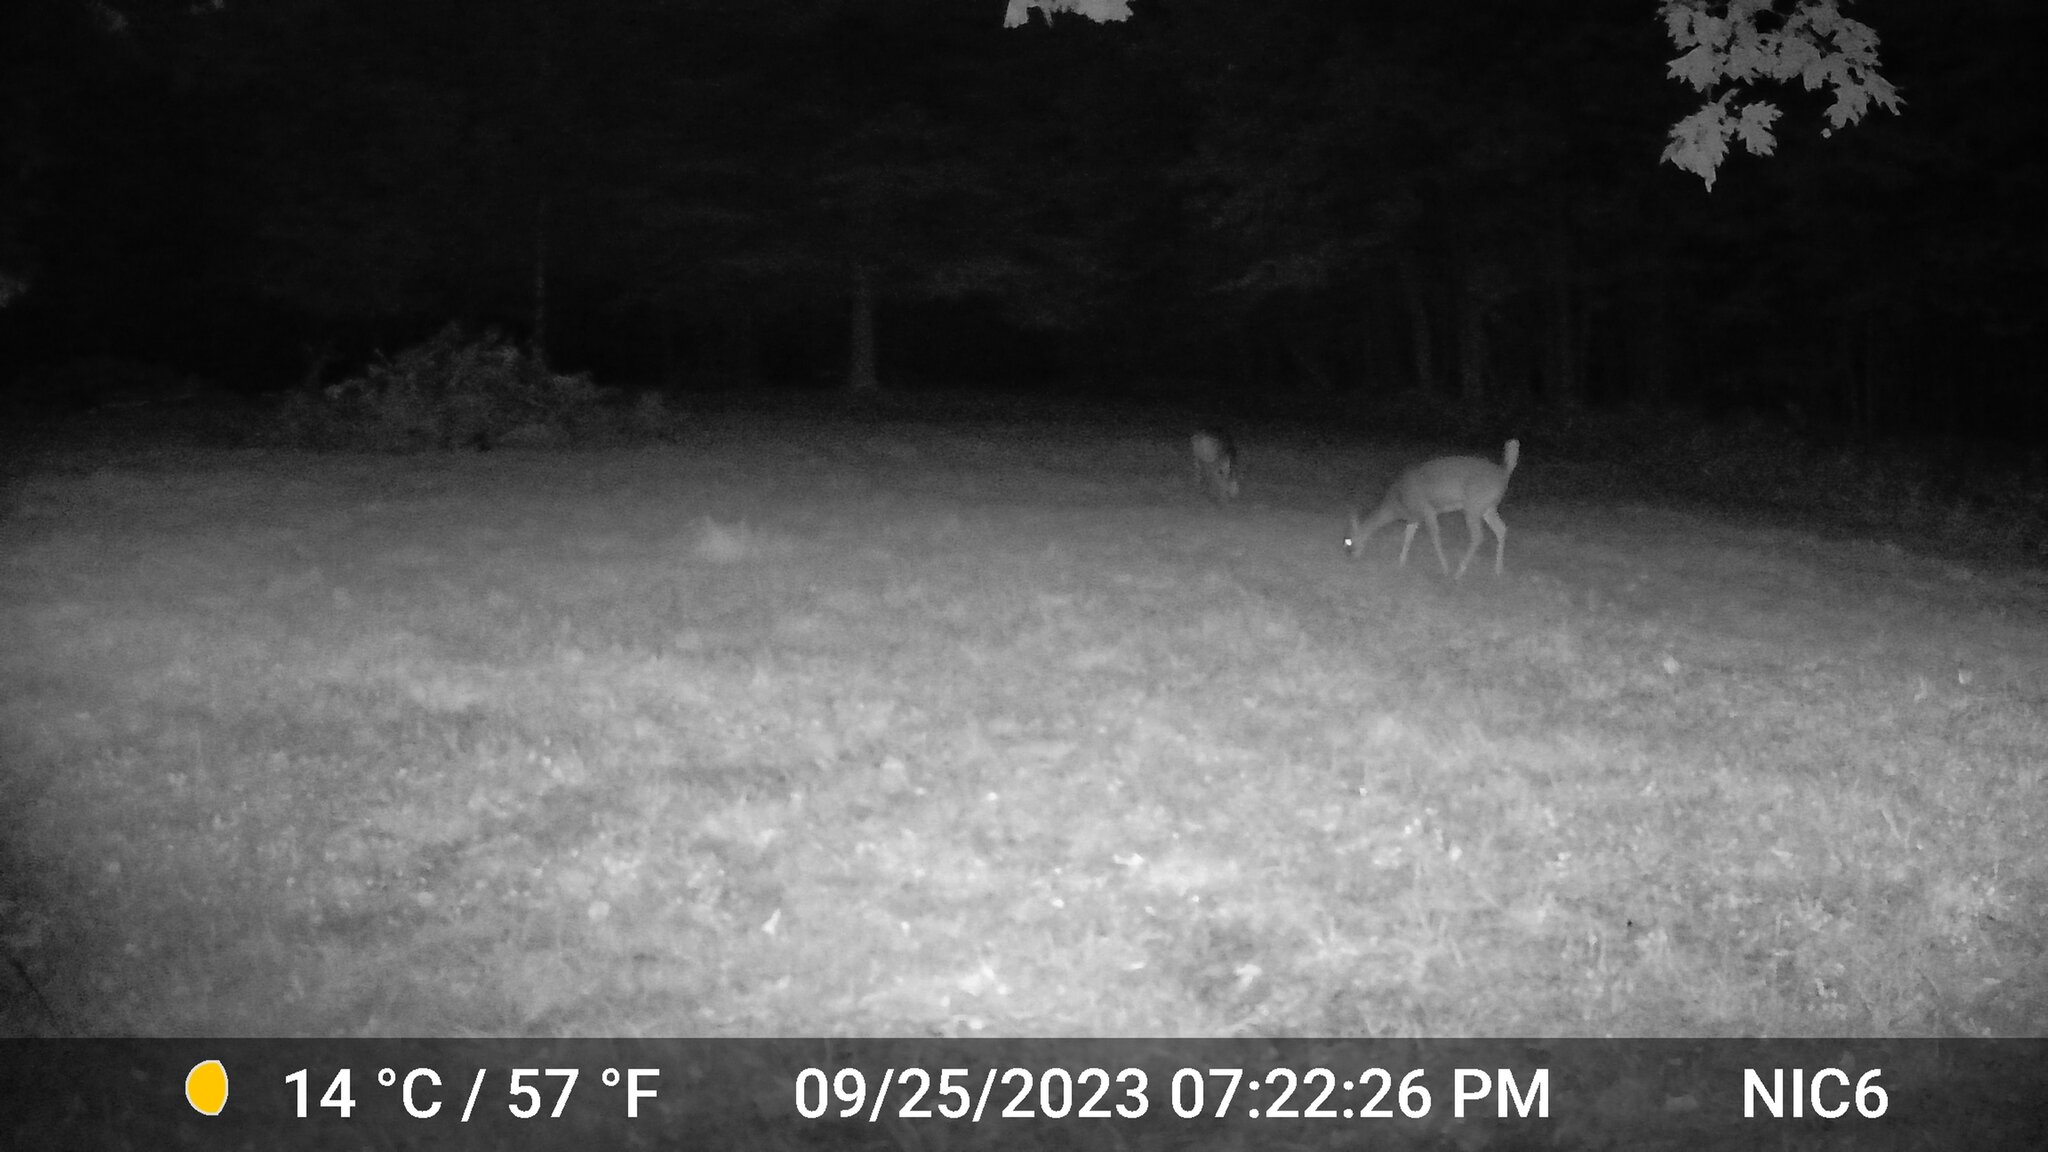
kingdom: Animalia
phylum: Chordata
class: Mammalia
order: Artiodactyla
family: Cervidae
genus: Odocoileus
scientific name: Odocoileus virginianus
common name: White-tailed deer
